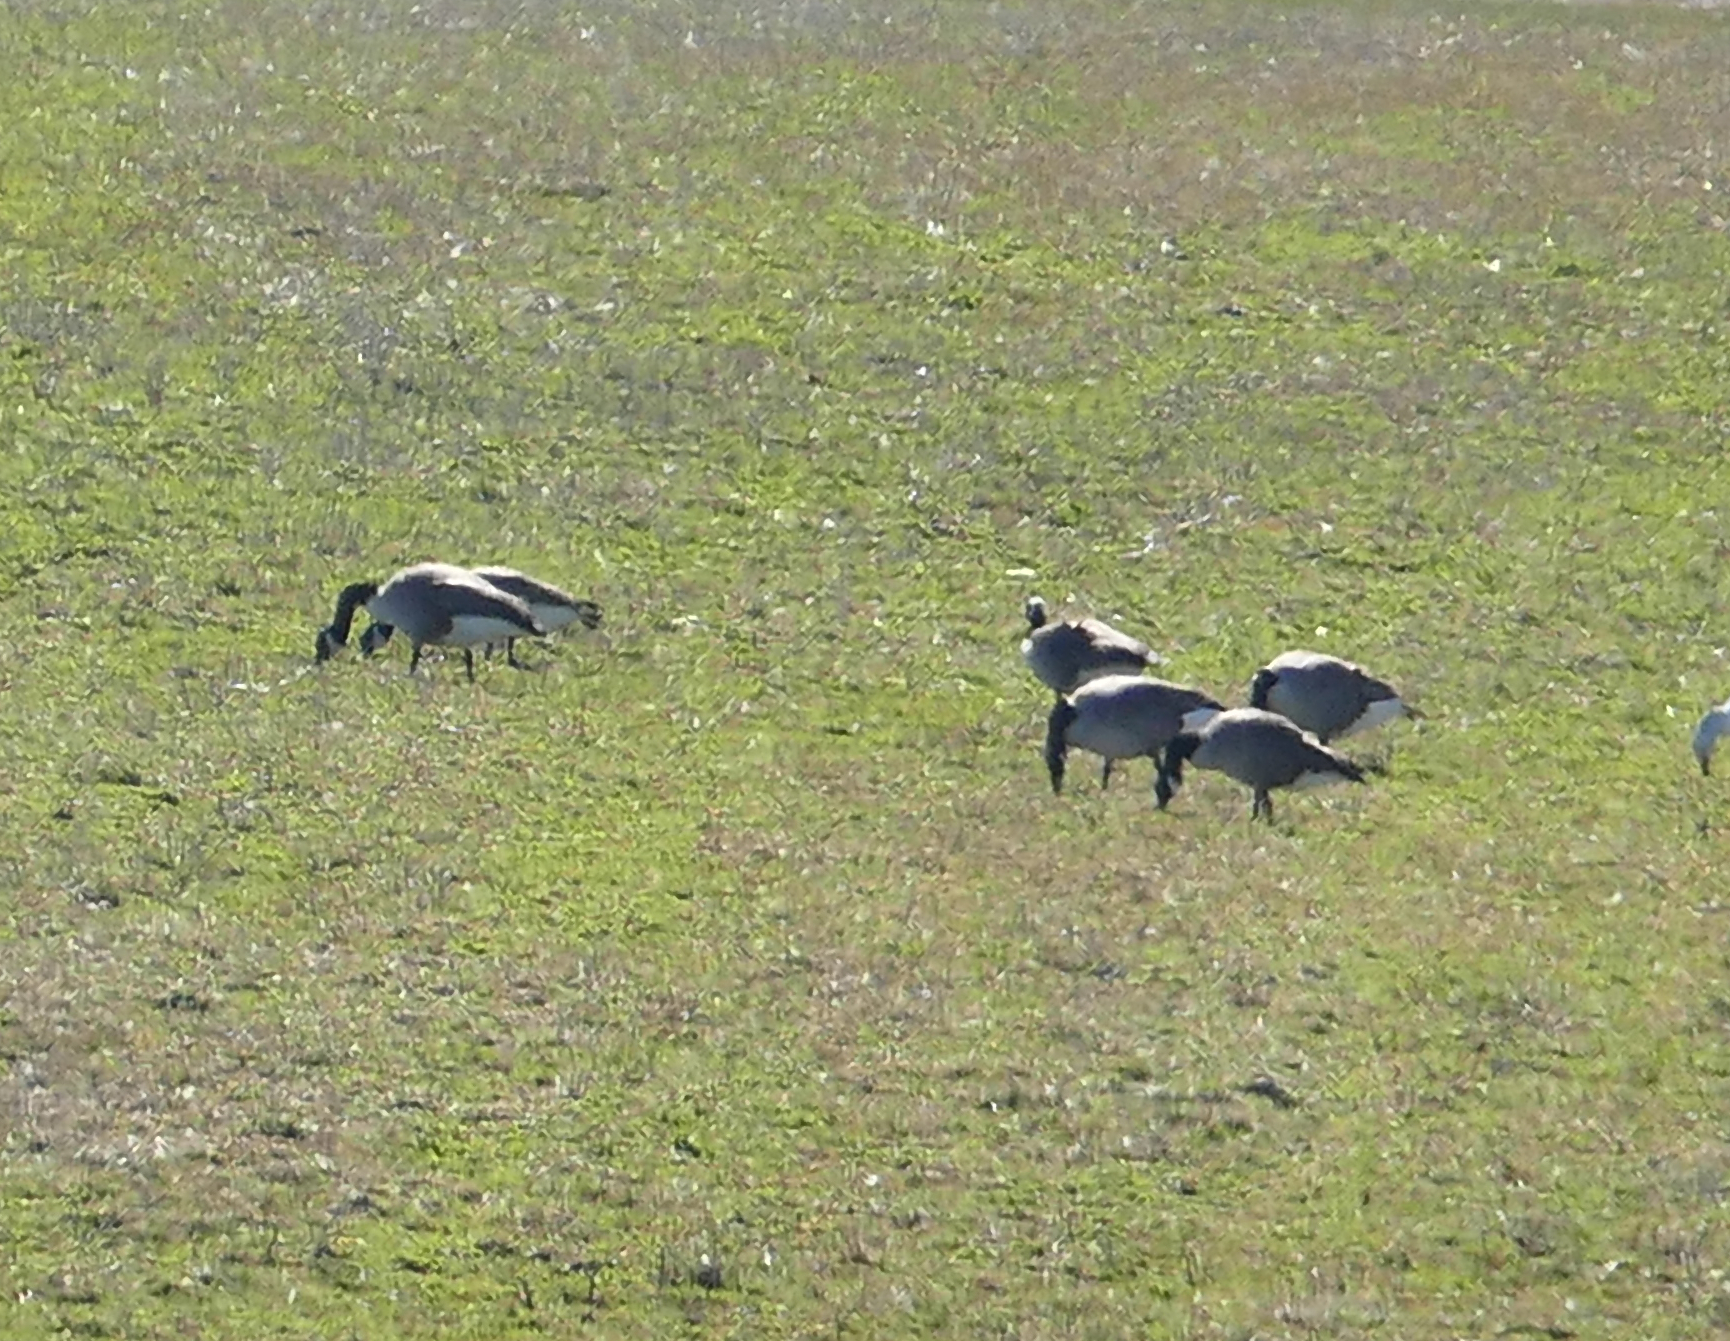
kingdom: Animalia
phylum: Chordata
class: Aves
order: Anseriformes
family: Anatidae
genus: Branta
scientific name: Branta canadensis
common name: Canada goose
